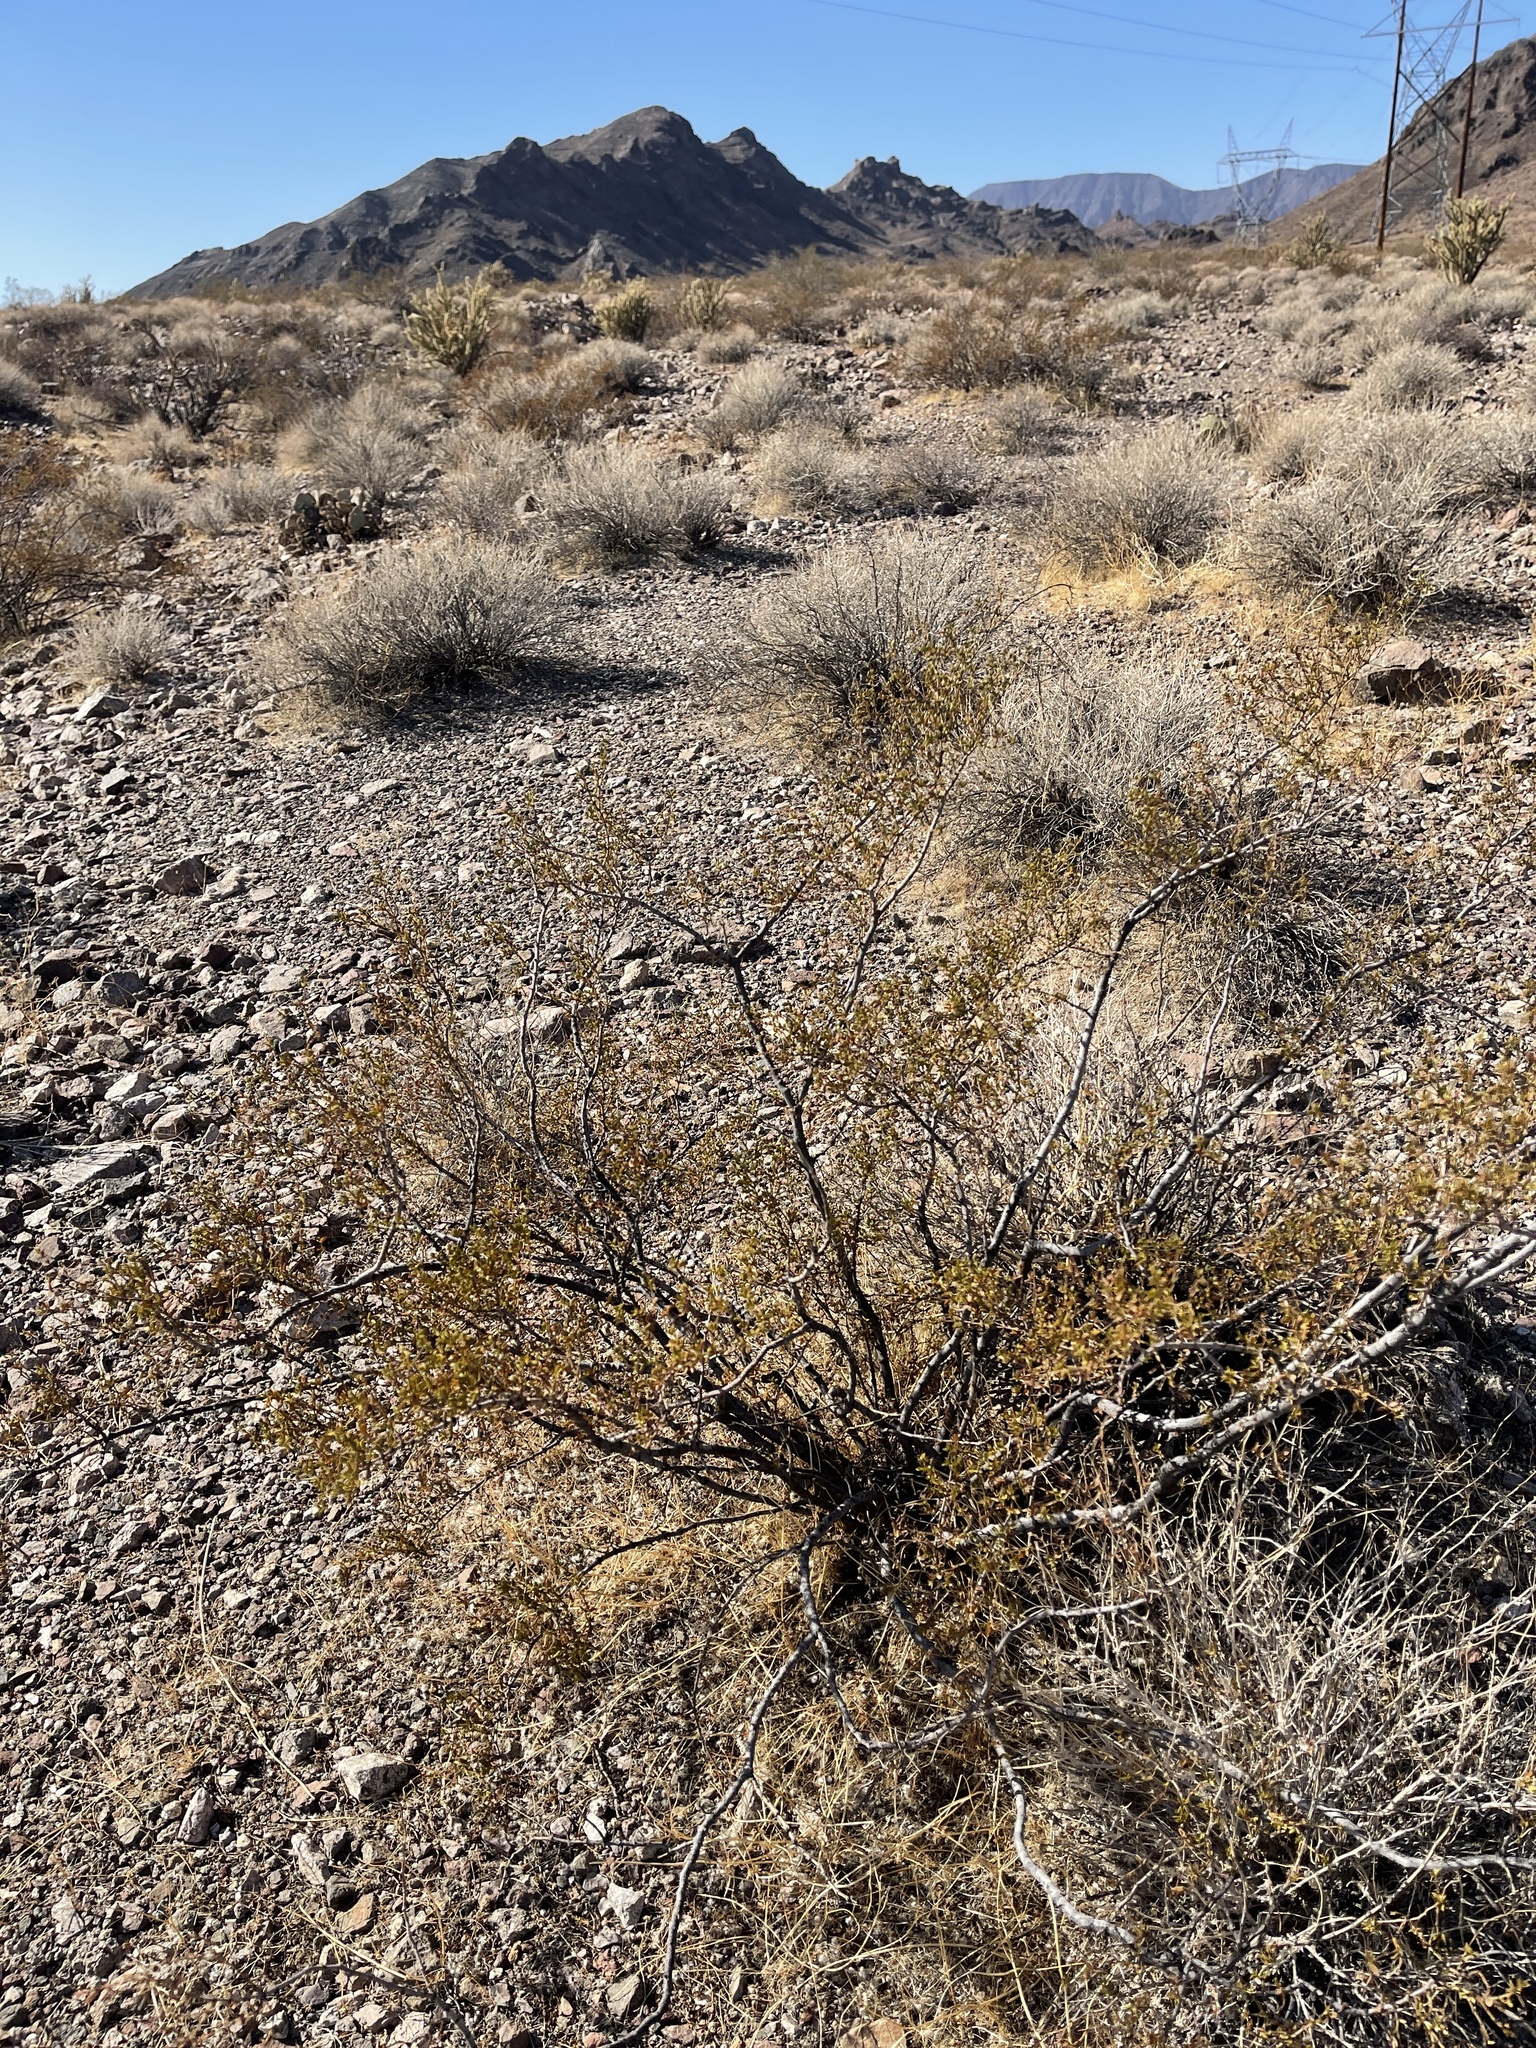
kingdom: Plantae
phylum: Tracheophyta
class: Magnoliopsida
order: Zygophyllales
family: Zygophyllaceae
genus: Larrea
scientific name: Larrea tridentata
